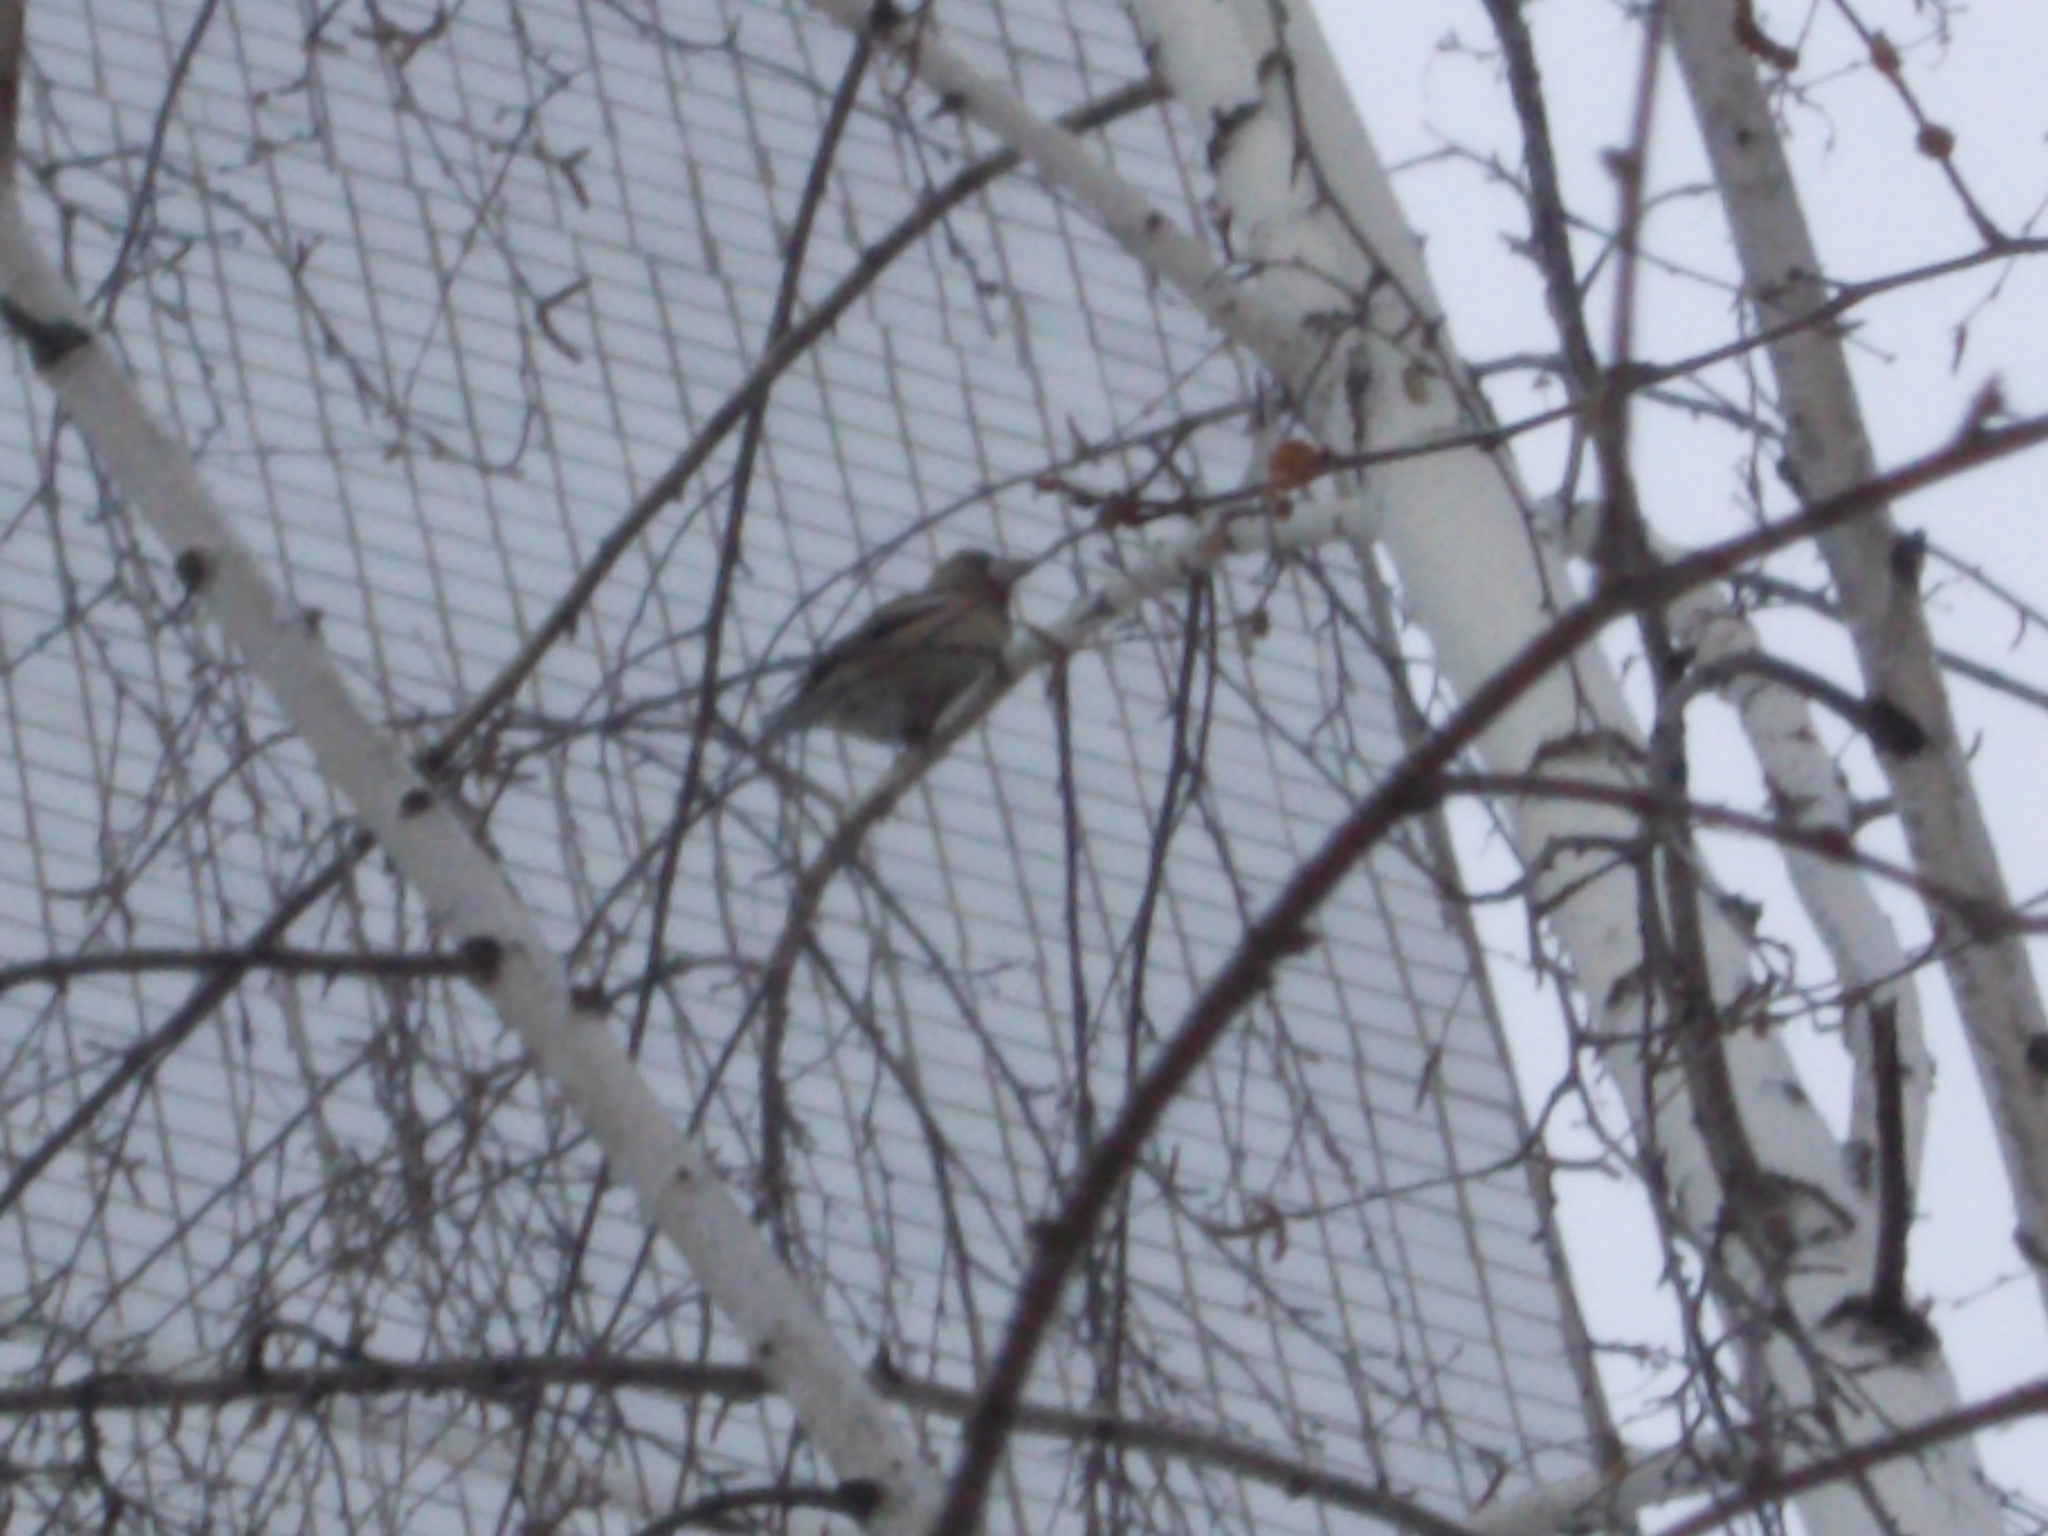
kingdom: Animalia
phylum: Chordata
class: Aves
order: Passeriformes
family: Fringillidae
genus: Coccothraustes
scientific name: Coccothraustes coccothraustes
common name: Hawfinch
